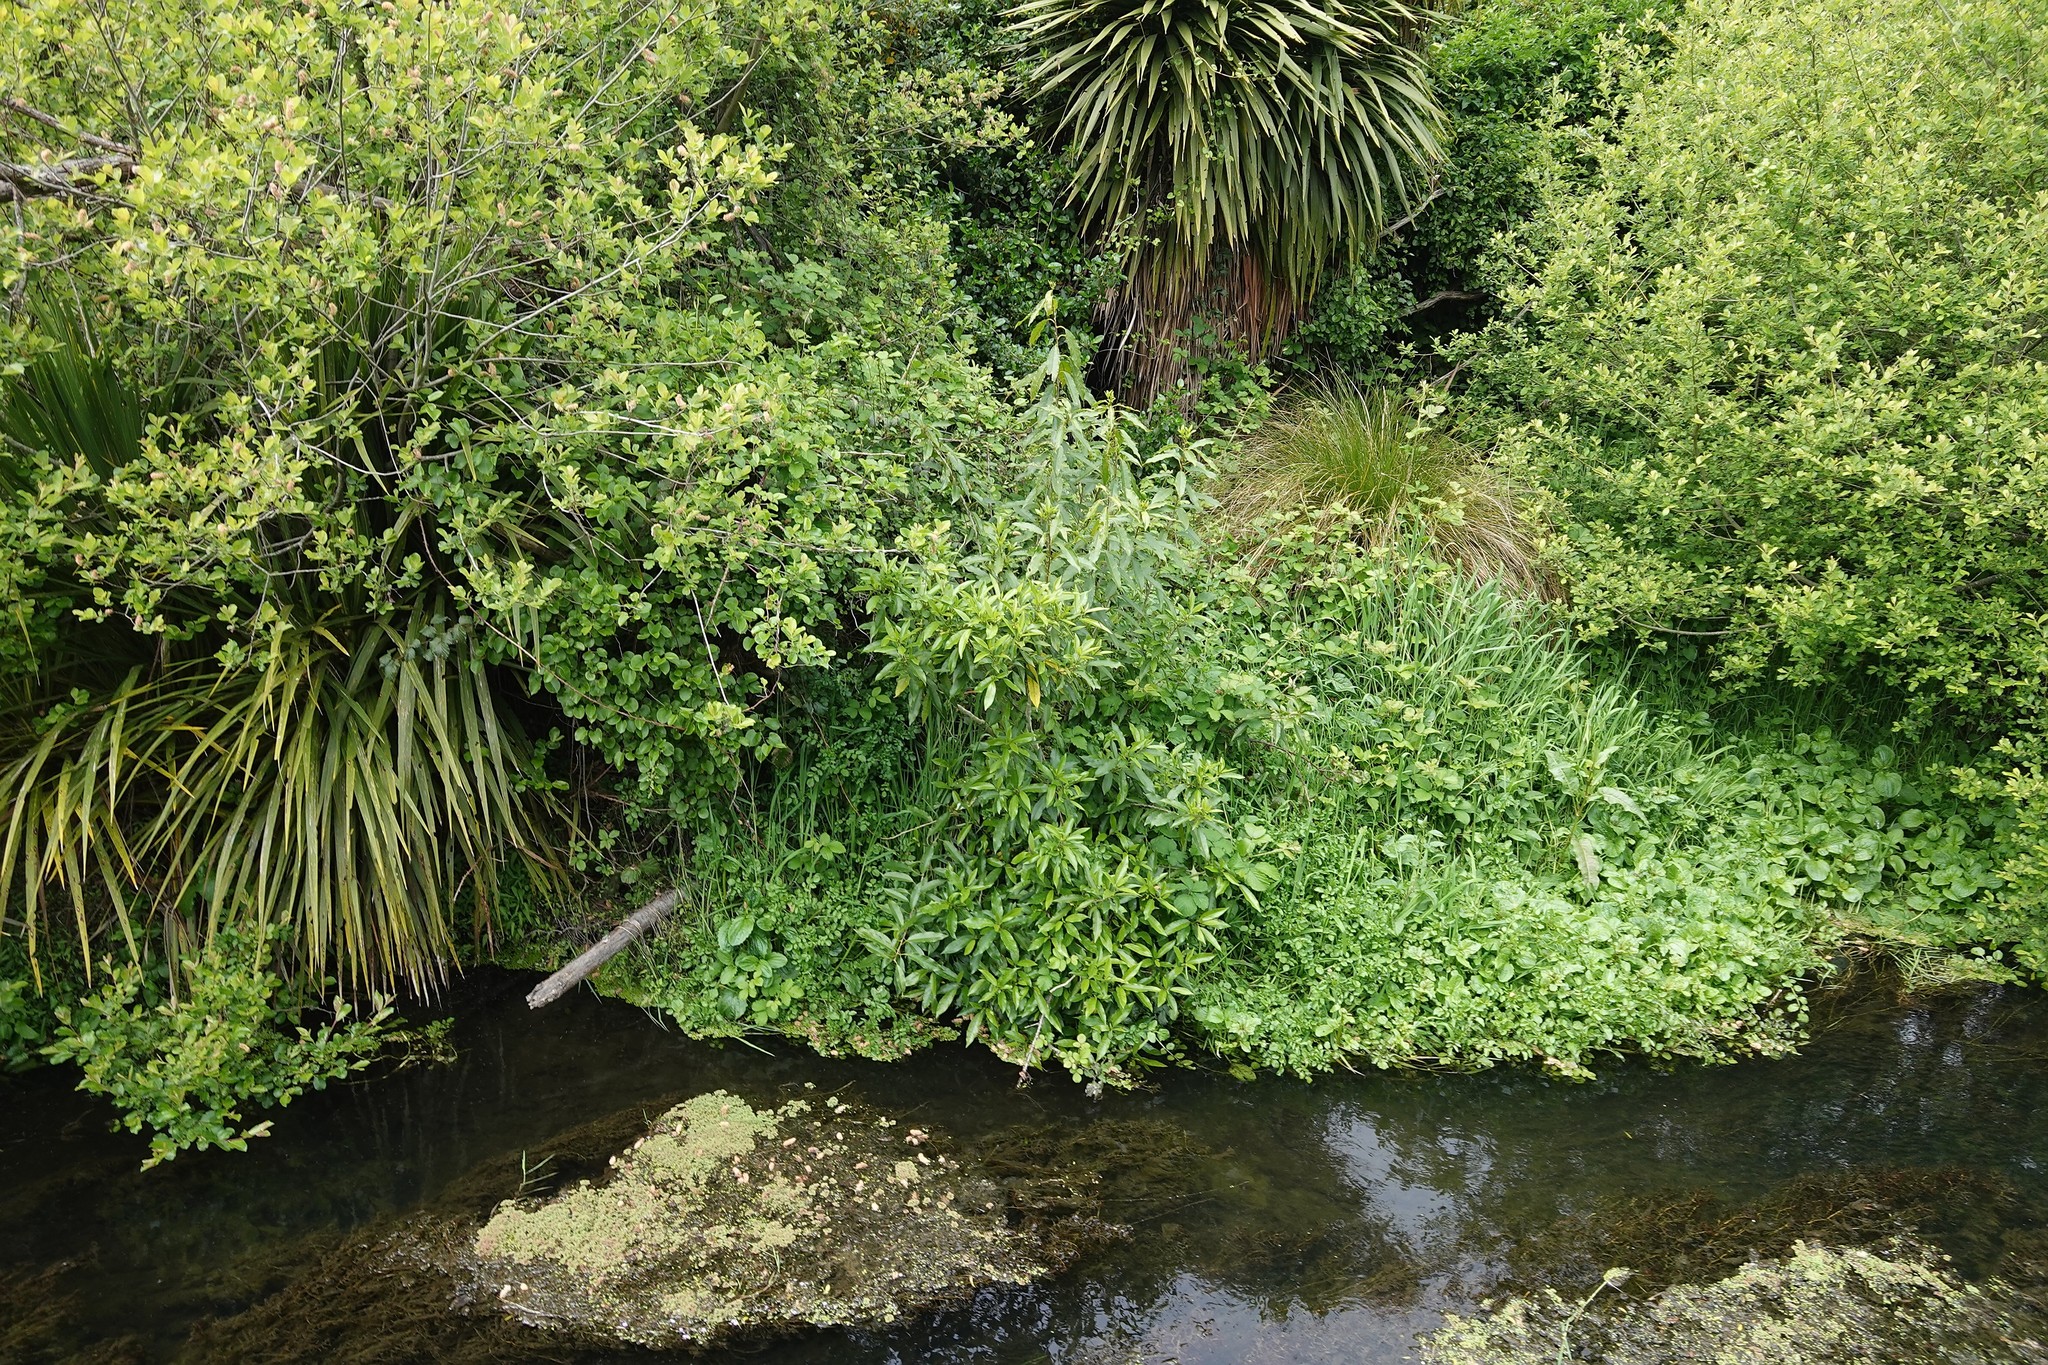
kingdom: Plantae
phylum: Tracheophyta
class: Magnoliopsida
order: Malpighiales
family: Violaceae
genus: Melicytus
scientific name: Melicytus ramiflorus
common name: Mahoe
